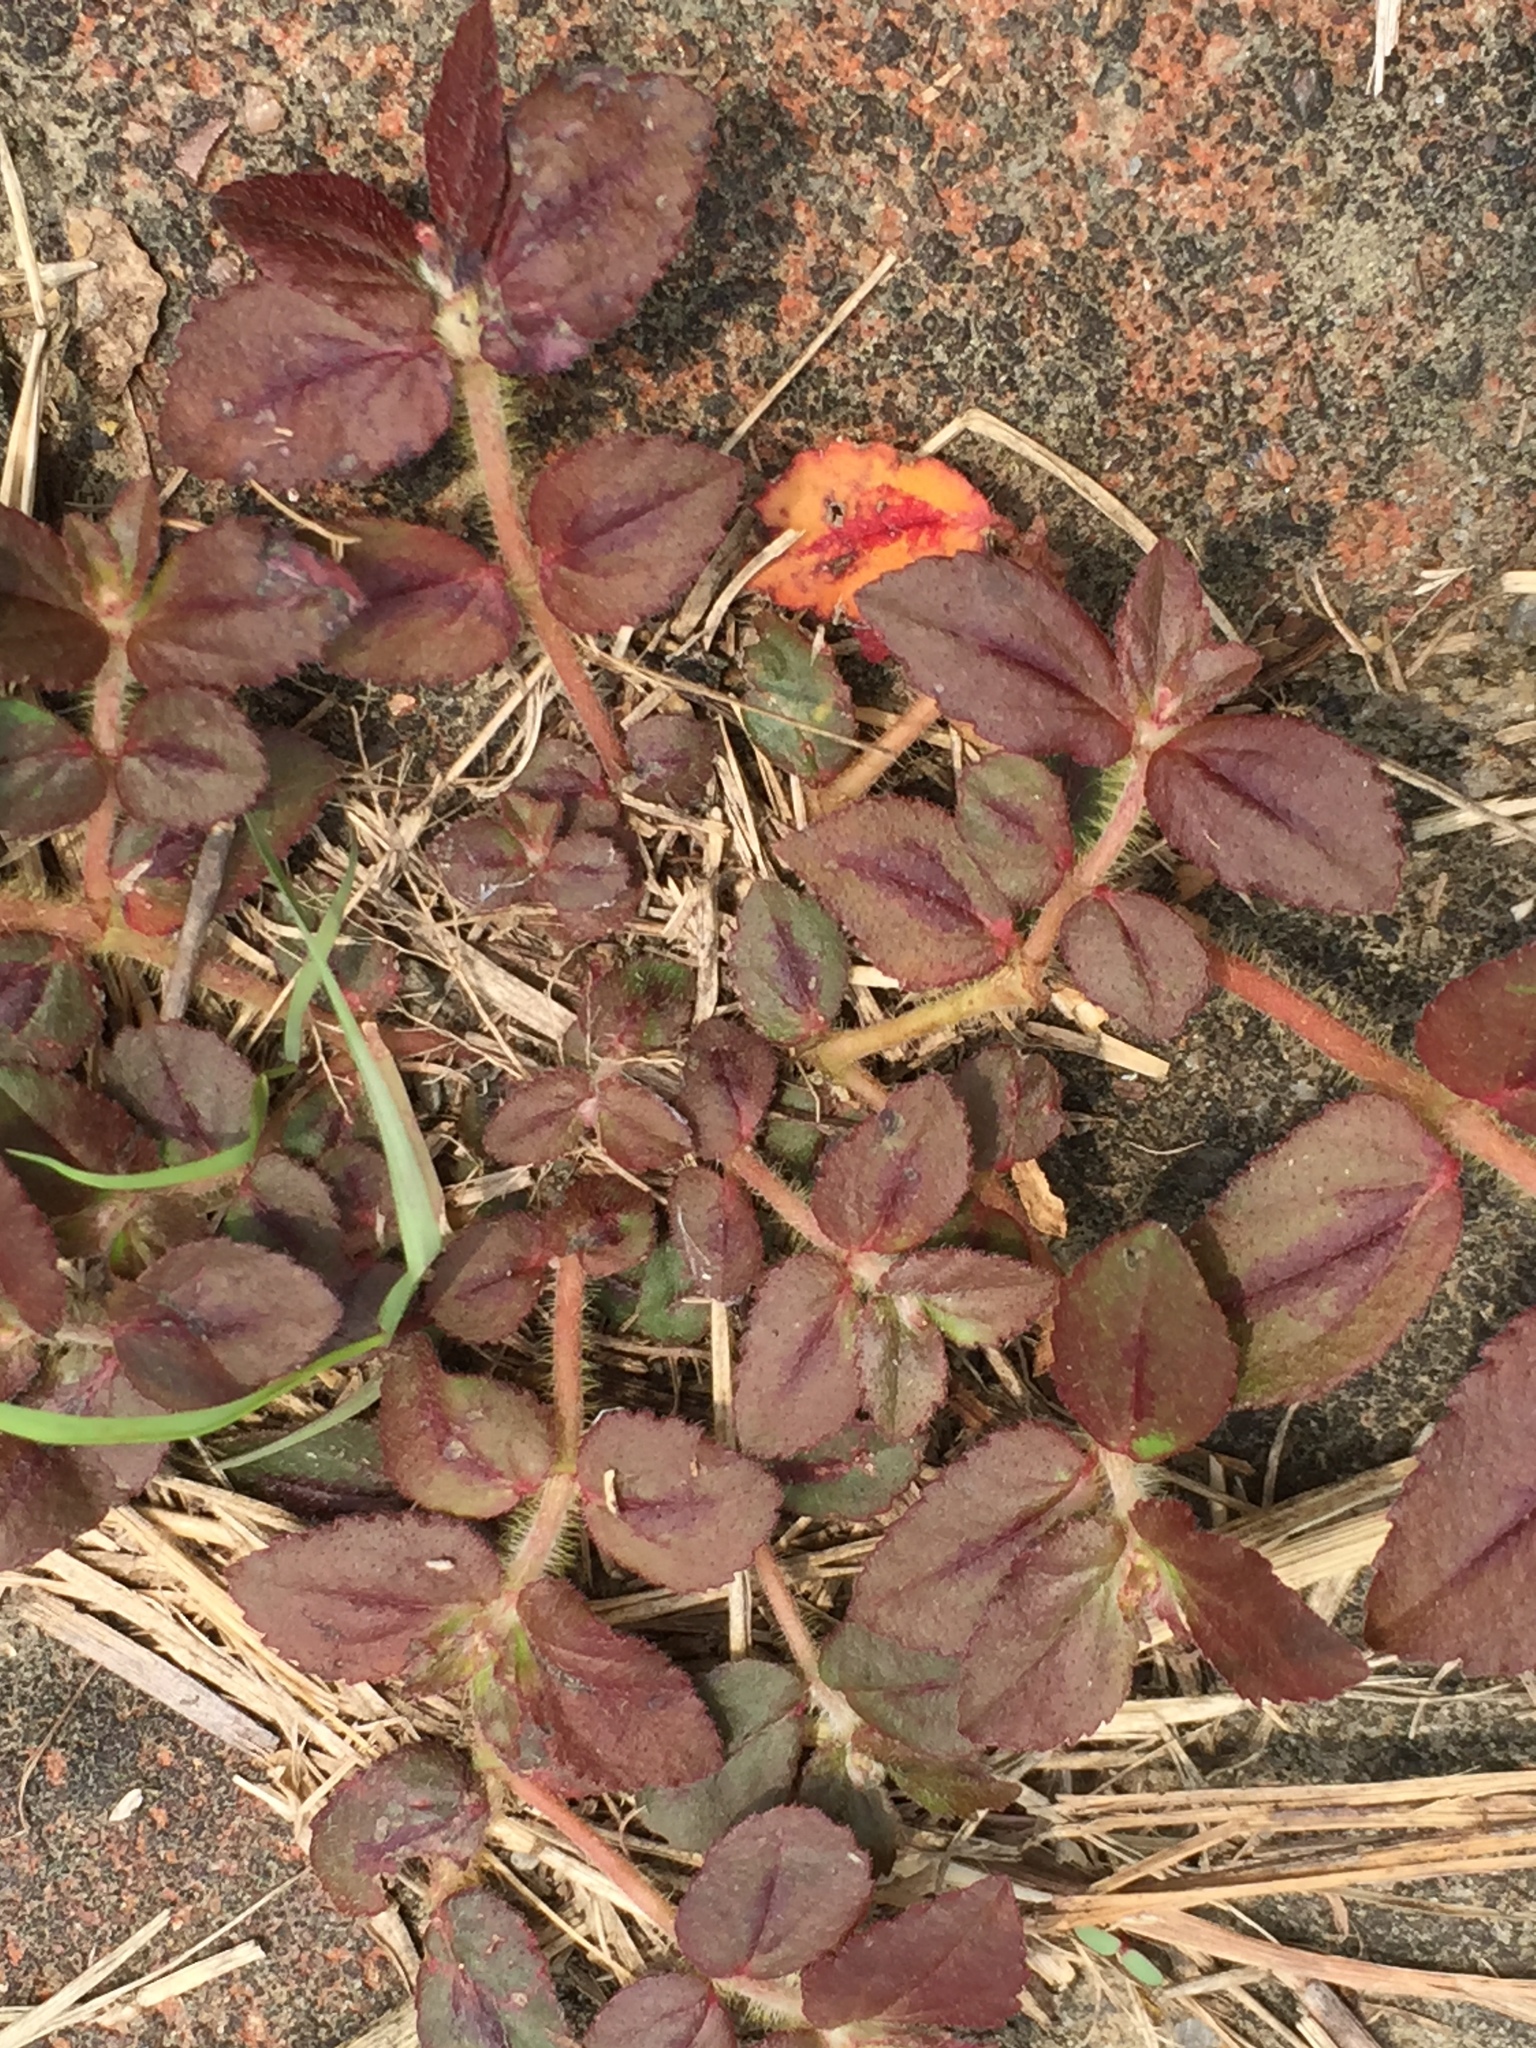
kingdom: Plantae
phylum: Tracheophyta
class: Magnoliopsida
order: Malpighiales
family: Euphorbiaceae
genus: Euphorbia
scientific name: Euphorbia hirta
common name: Pillpod sandmat
